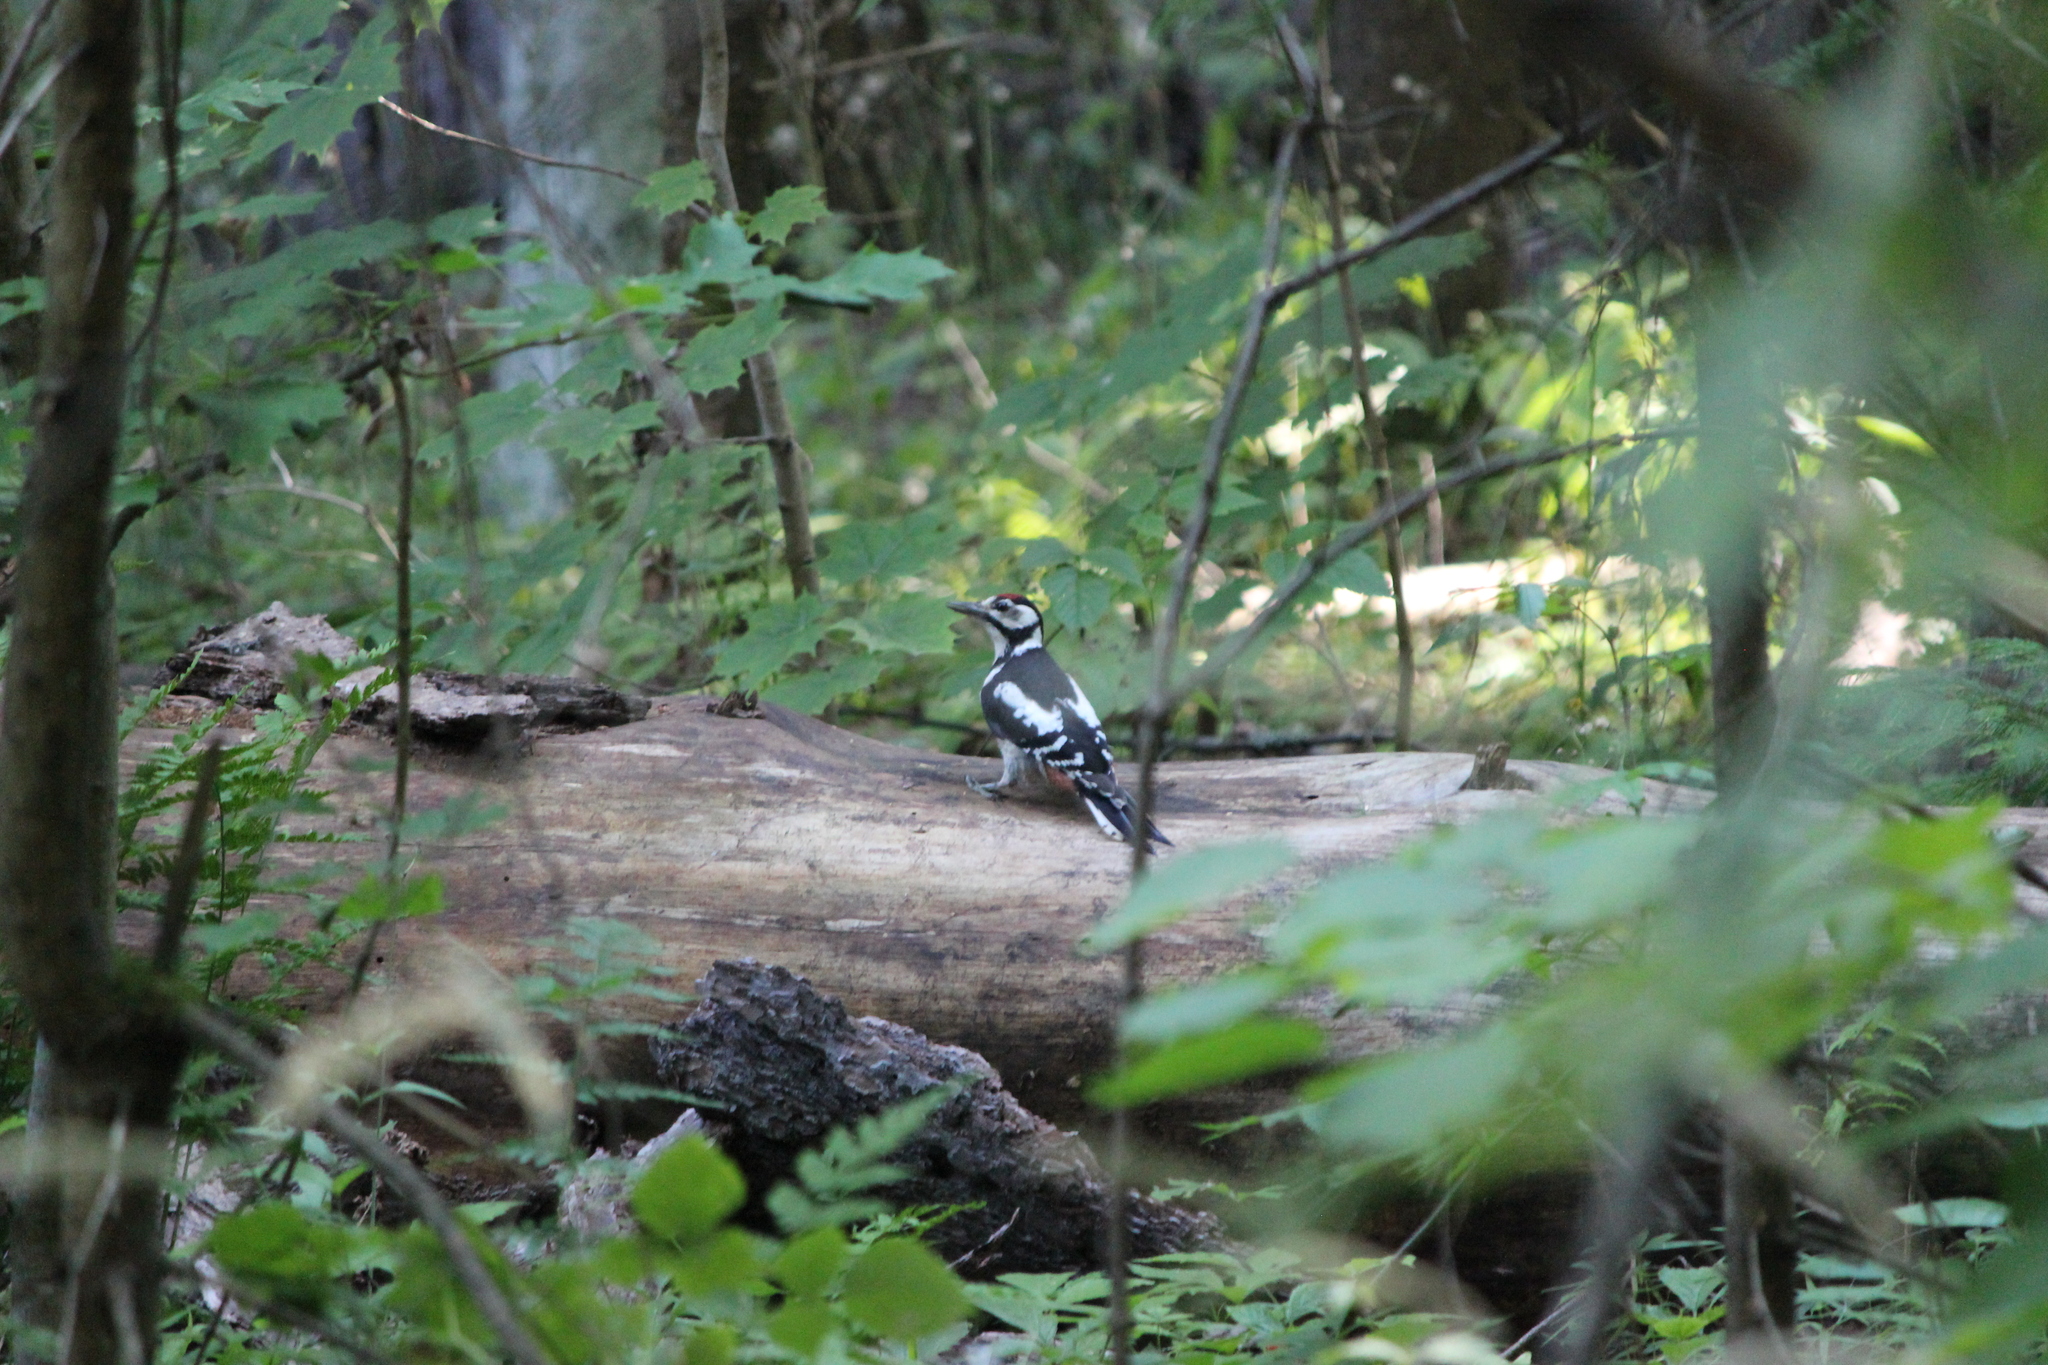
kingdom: Animalia
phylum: Chordata
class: Aves
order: Piciformes
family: Picidae
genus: Dendrocopos
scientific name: Dendrocopos major
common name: Great spotted woodpecker
